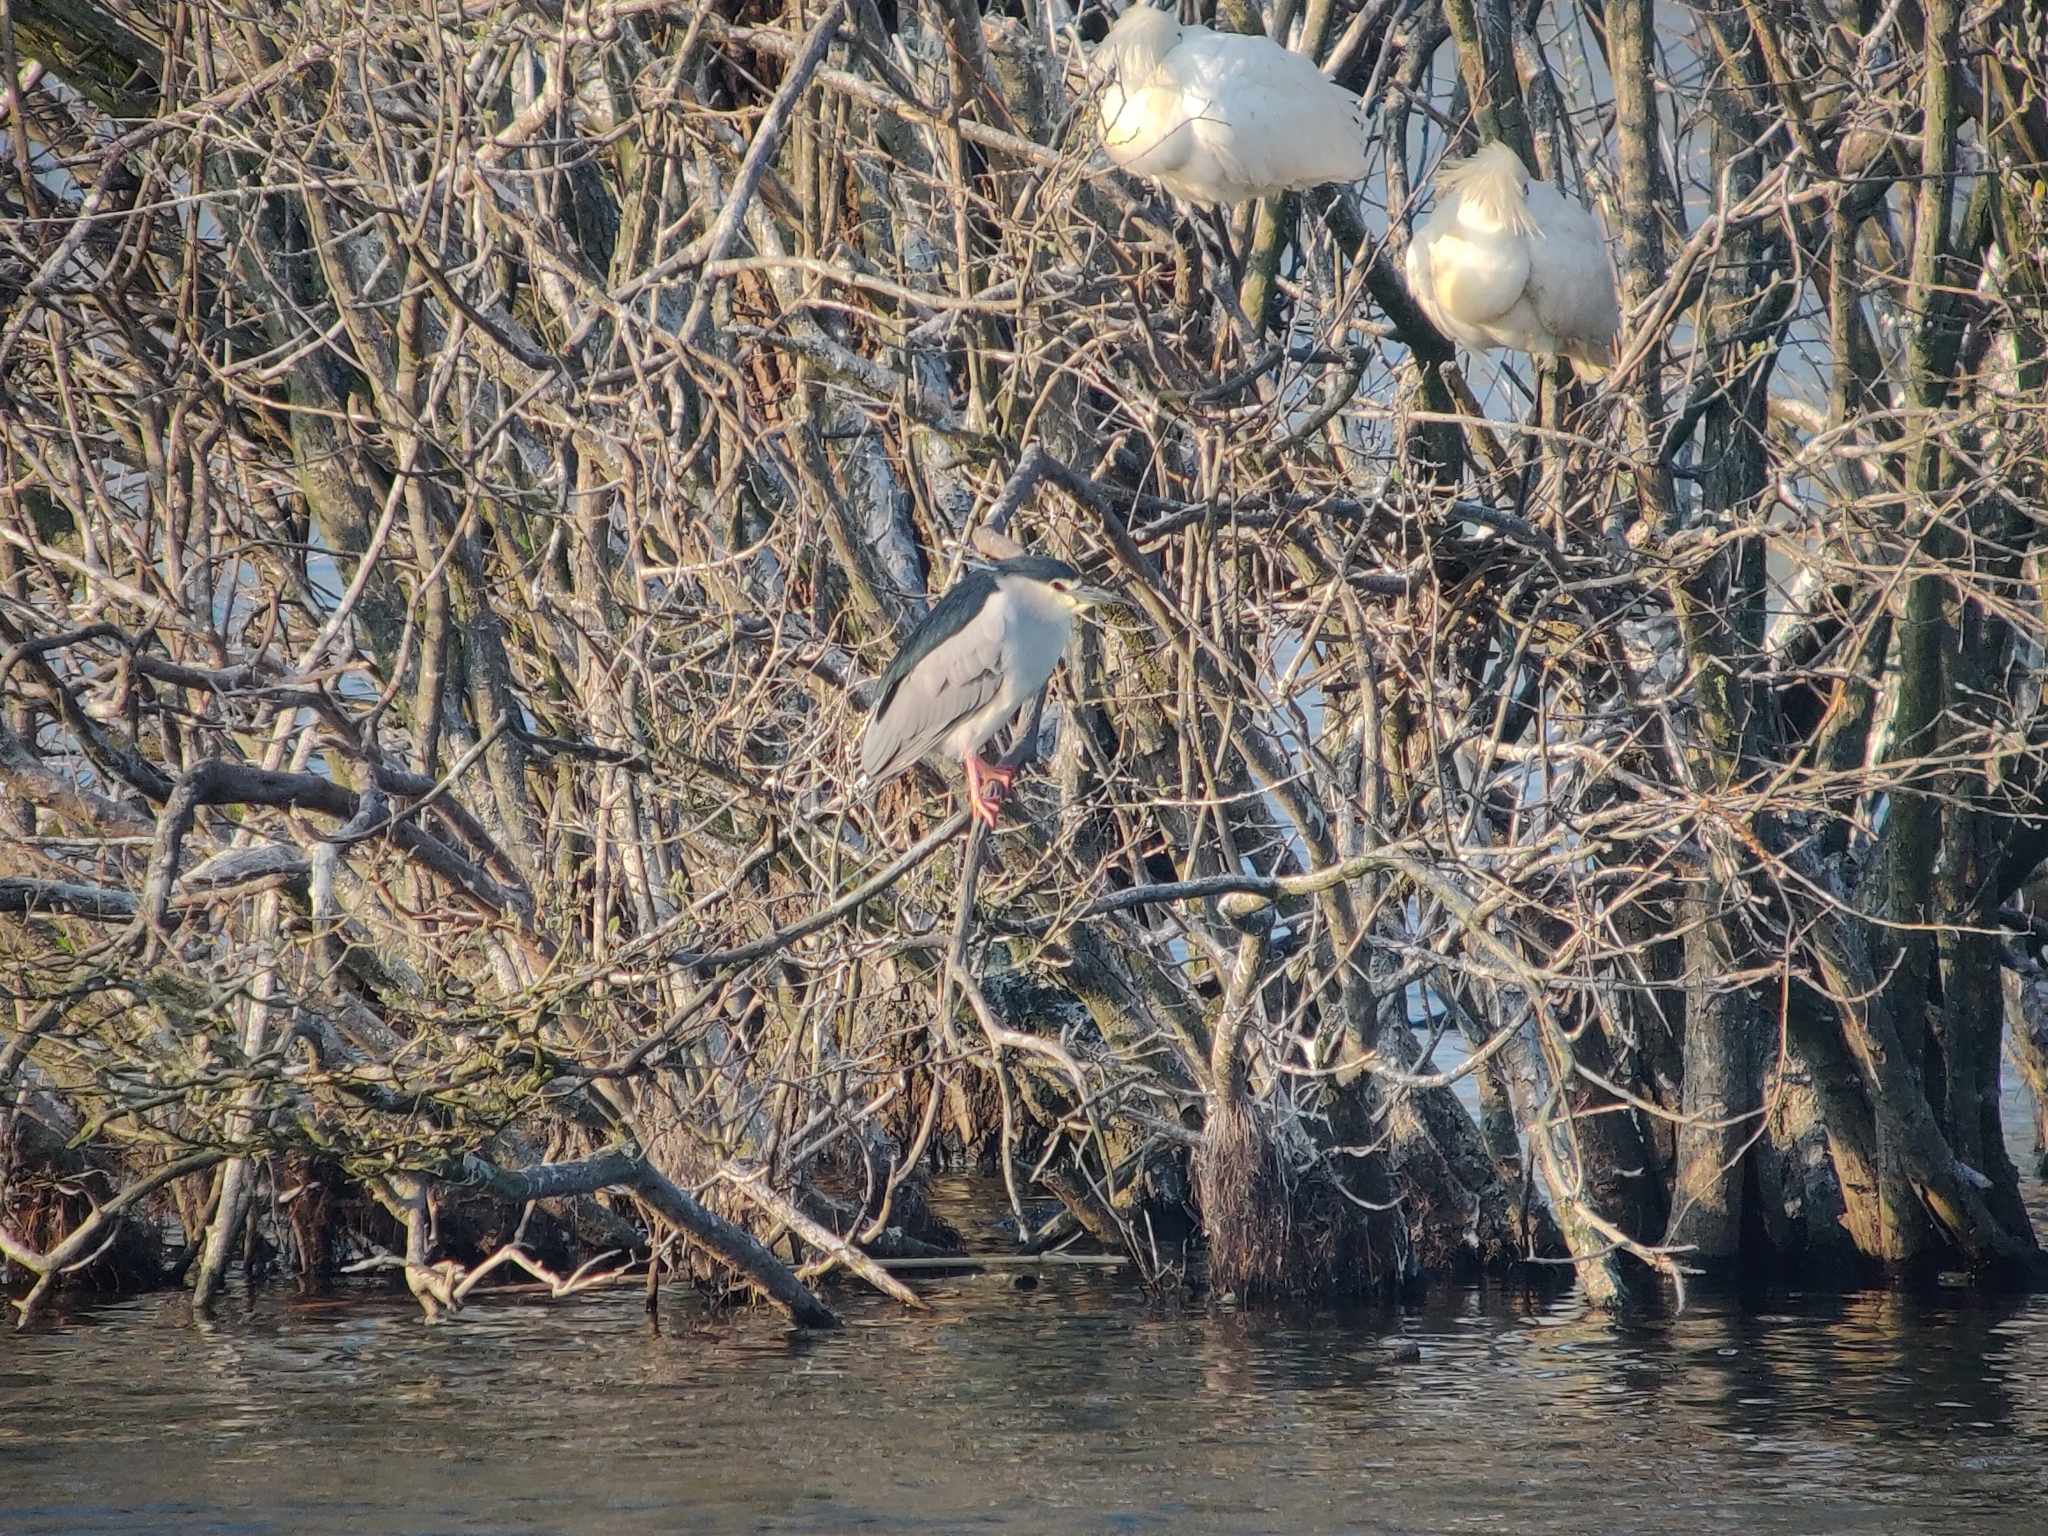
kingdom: Animalia
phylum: Chordata
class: Aves
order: Pelecaniformes
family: Ardeidae
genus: Nycticorax
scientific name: Nycticorax nycticorax
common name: Black-crowned night heron
